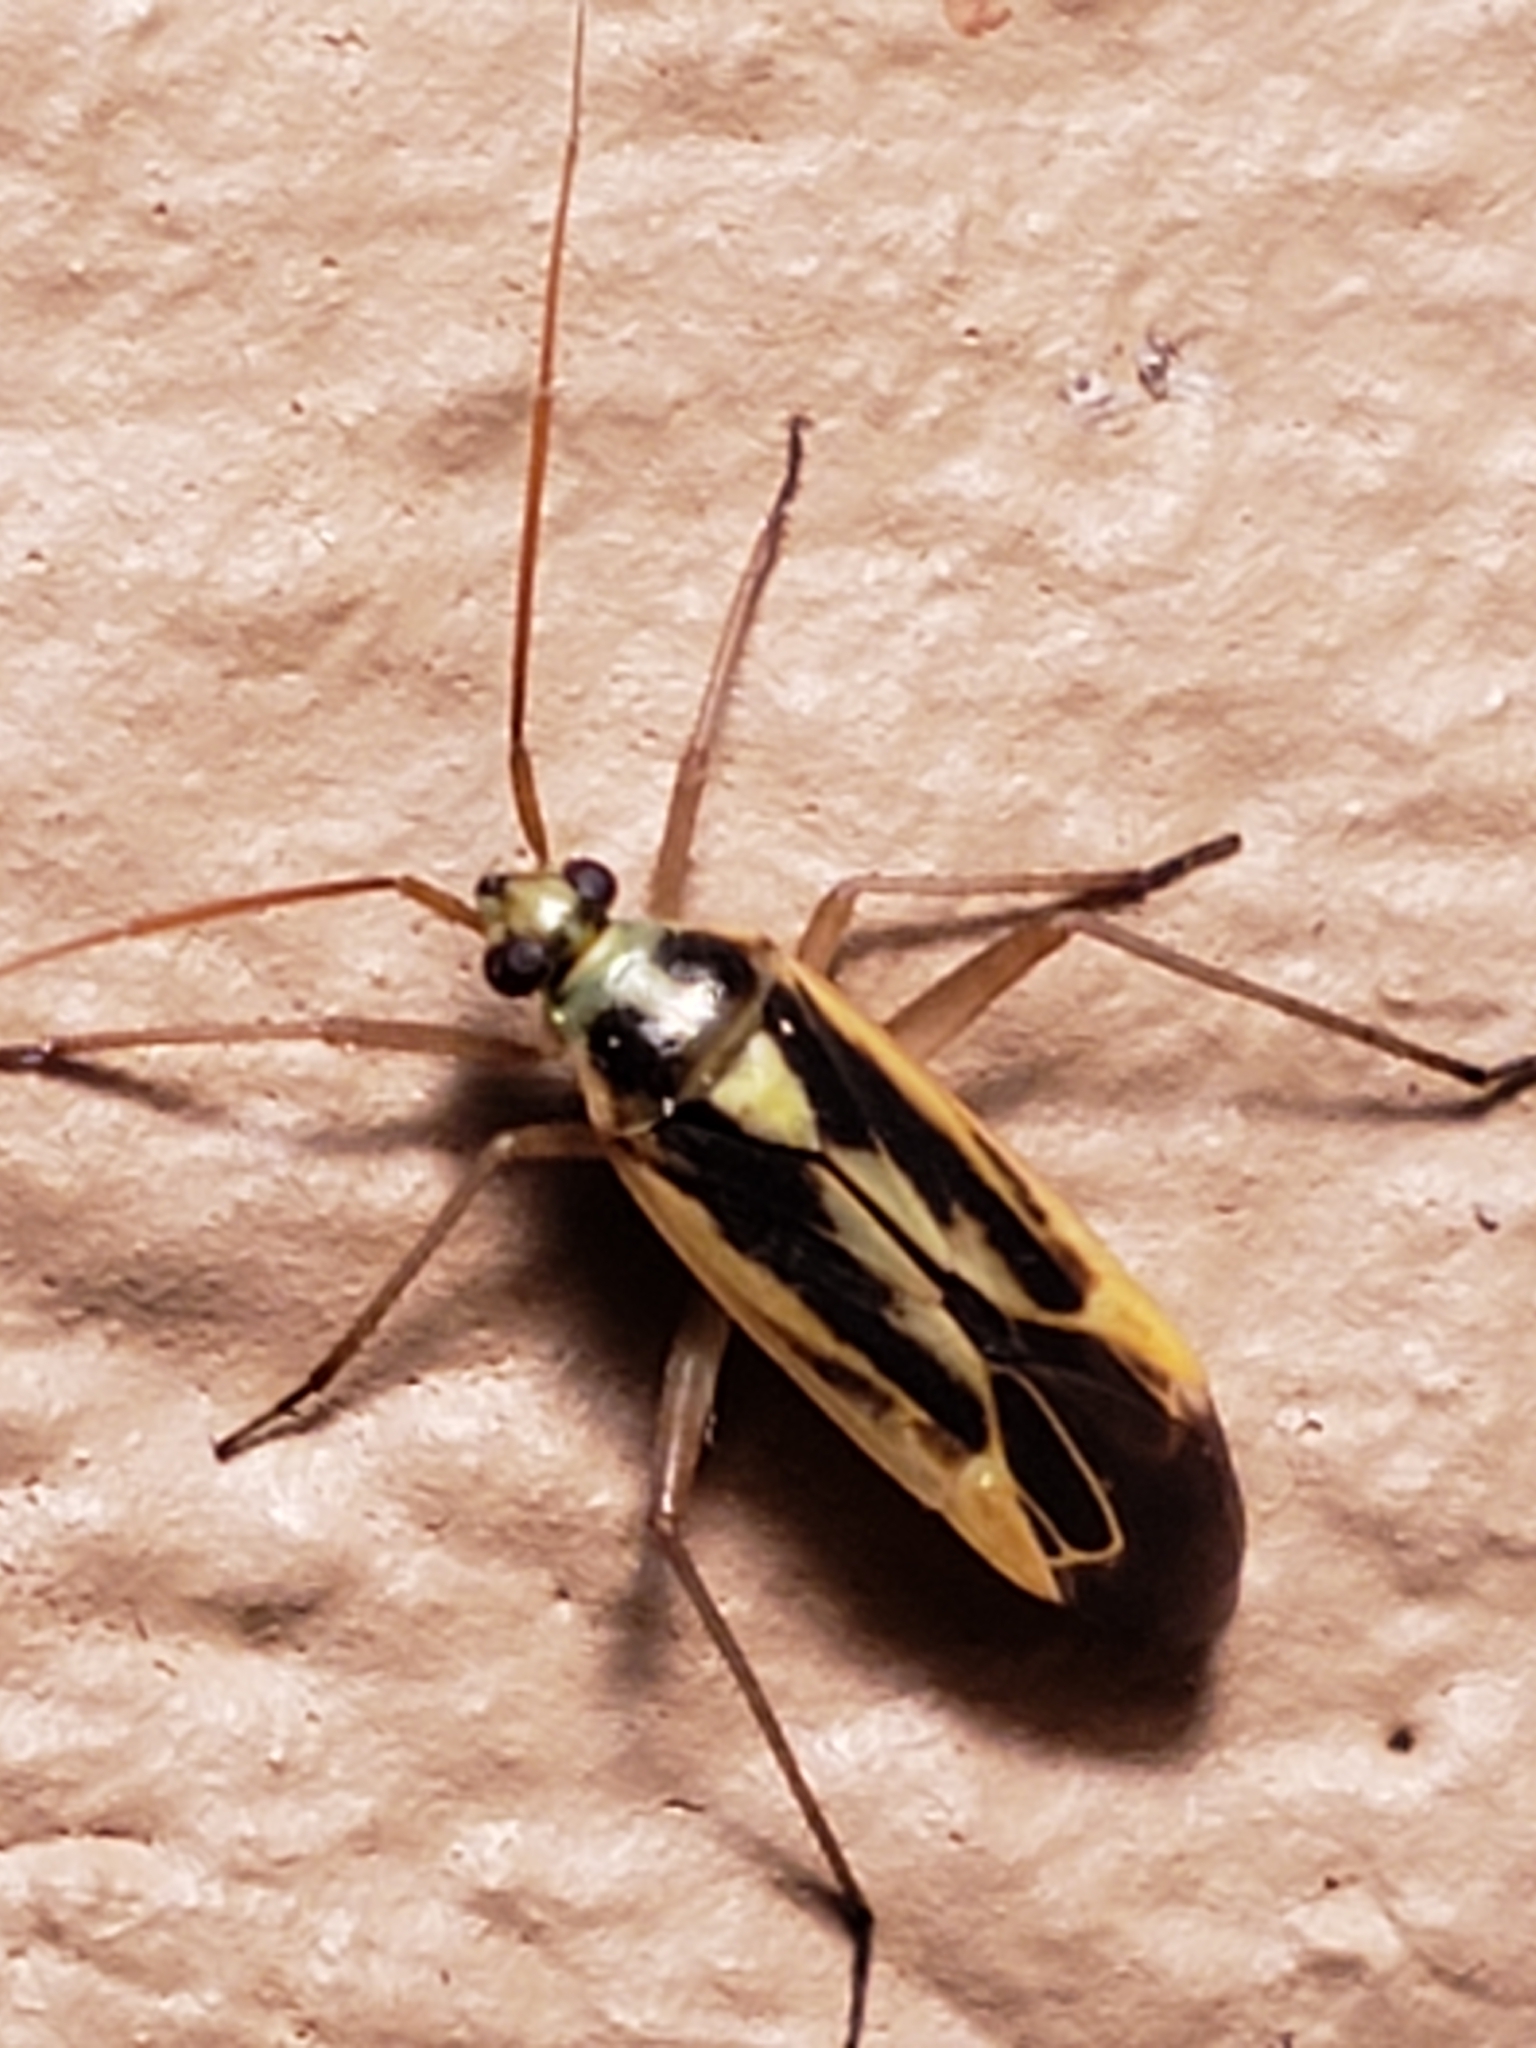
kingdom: Animalia
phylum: Arthropoda
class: Insecta
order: Hemiptera
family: Miridae
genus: Stenotus
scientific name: Stenotus binotatus
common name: Plant bug
